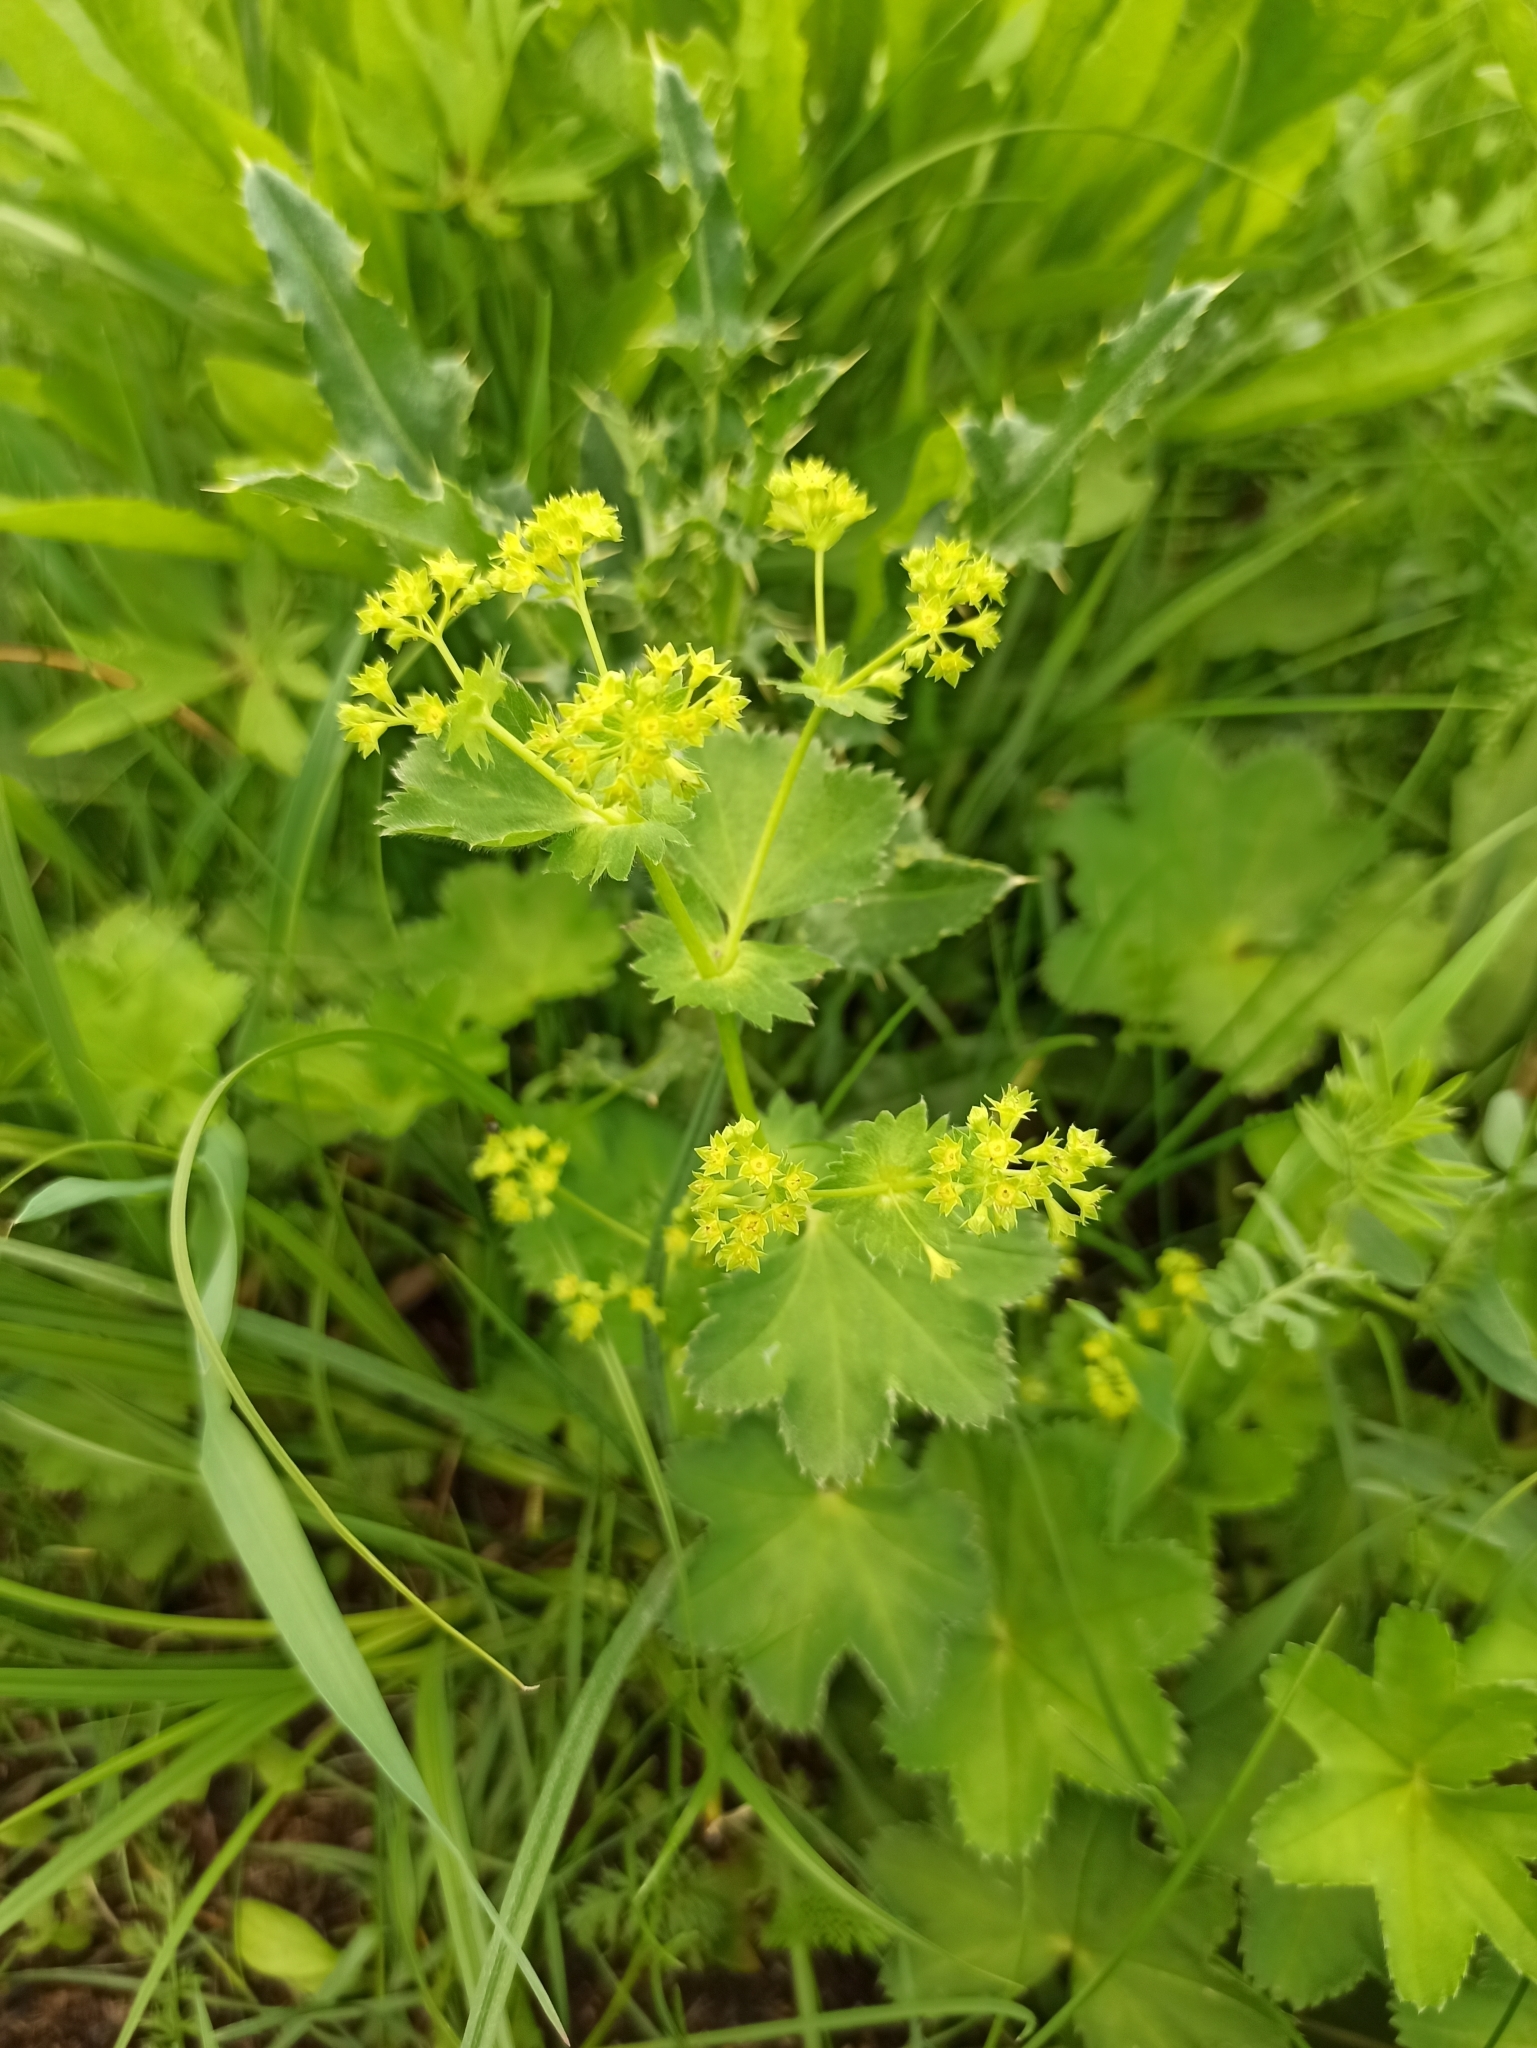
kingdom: Plantae
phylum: Tracheophyta
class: Magnoliopsida
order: Rosales
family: Rosaceae
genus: Alchemilla
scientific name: Alchemilla micans
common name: Gleaming lady's mantle
